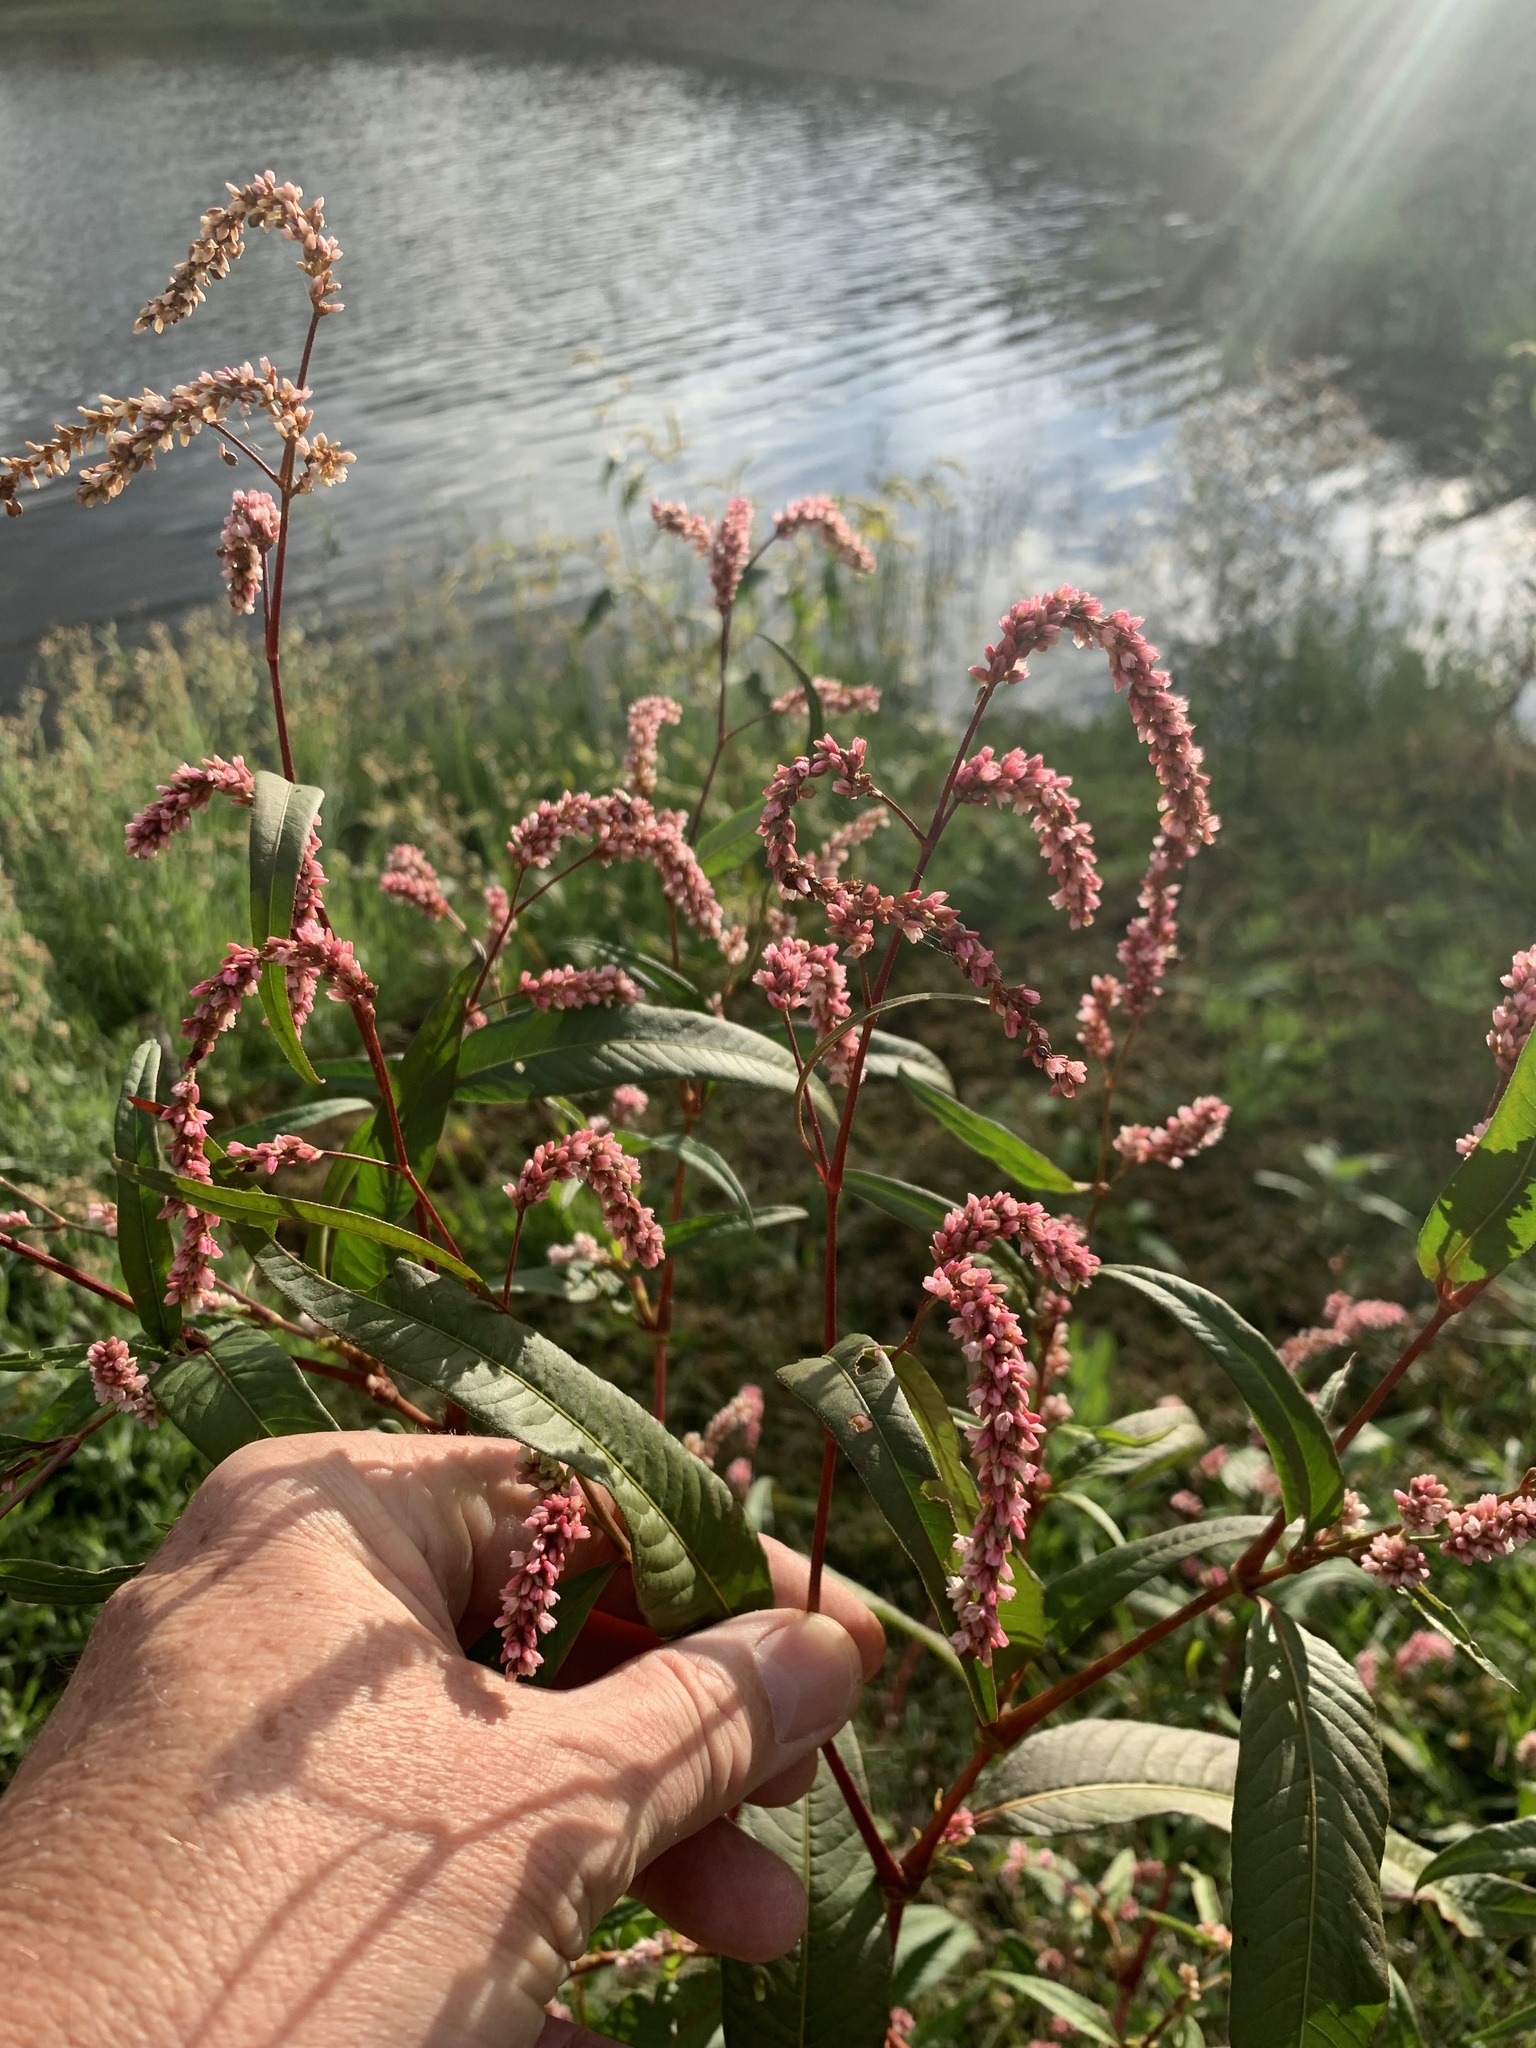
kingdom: Plantae
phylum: Tracheophyta
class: Magnoliopsida
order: Caryophyllales
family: Polygonaceae
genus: Persicaria
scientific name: Persicaria lapathifolia
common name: Curlytop knotweed
